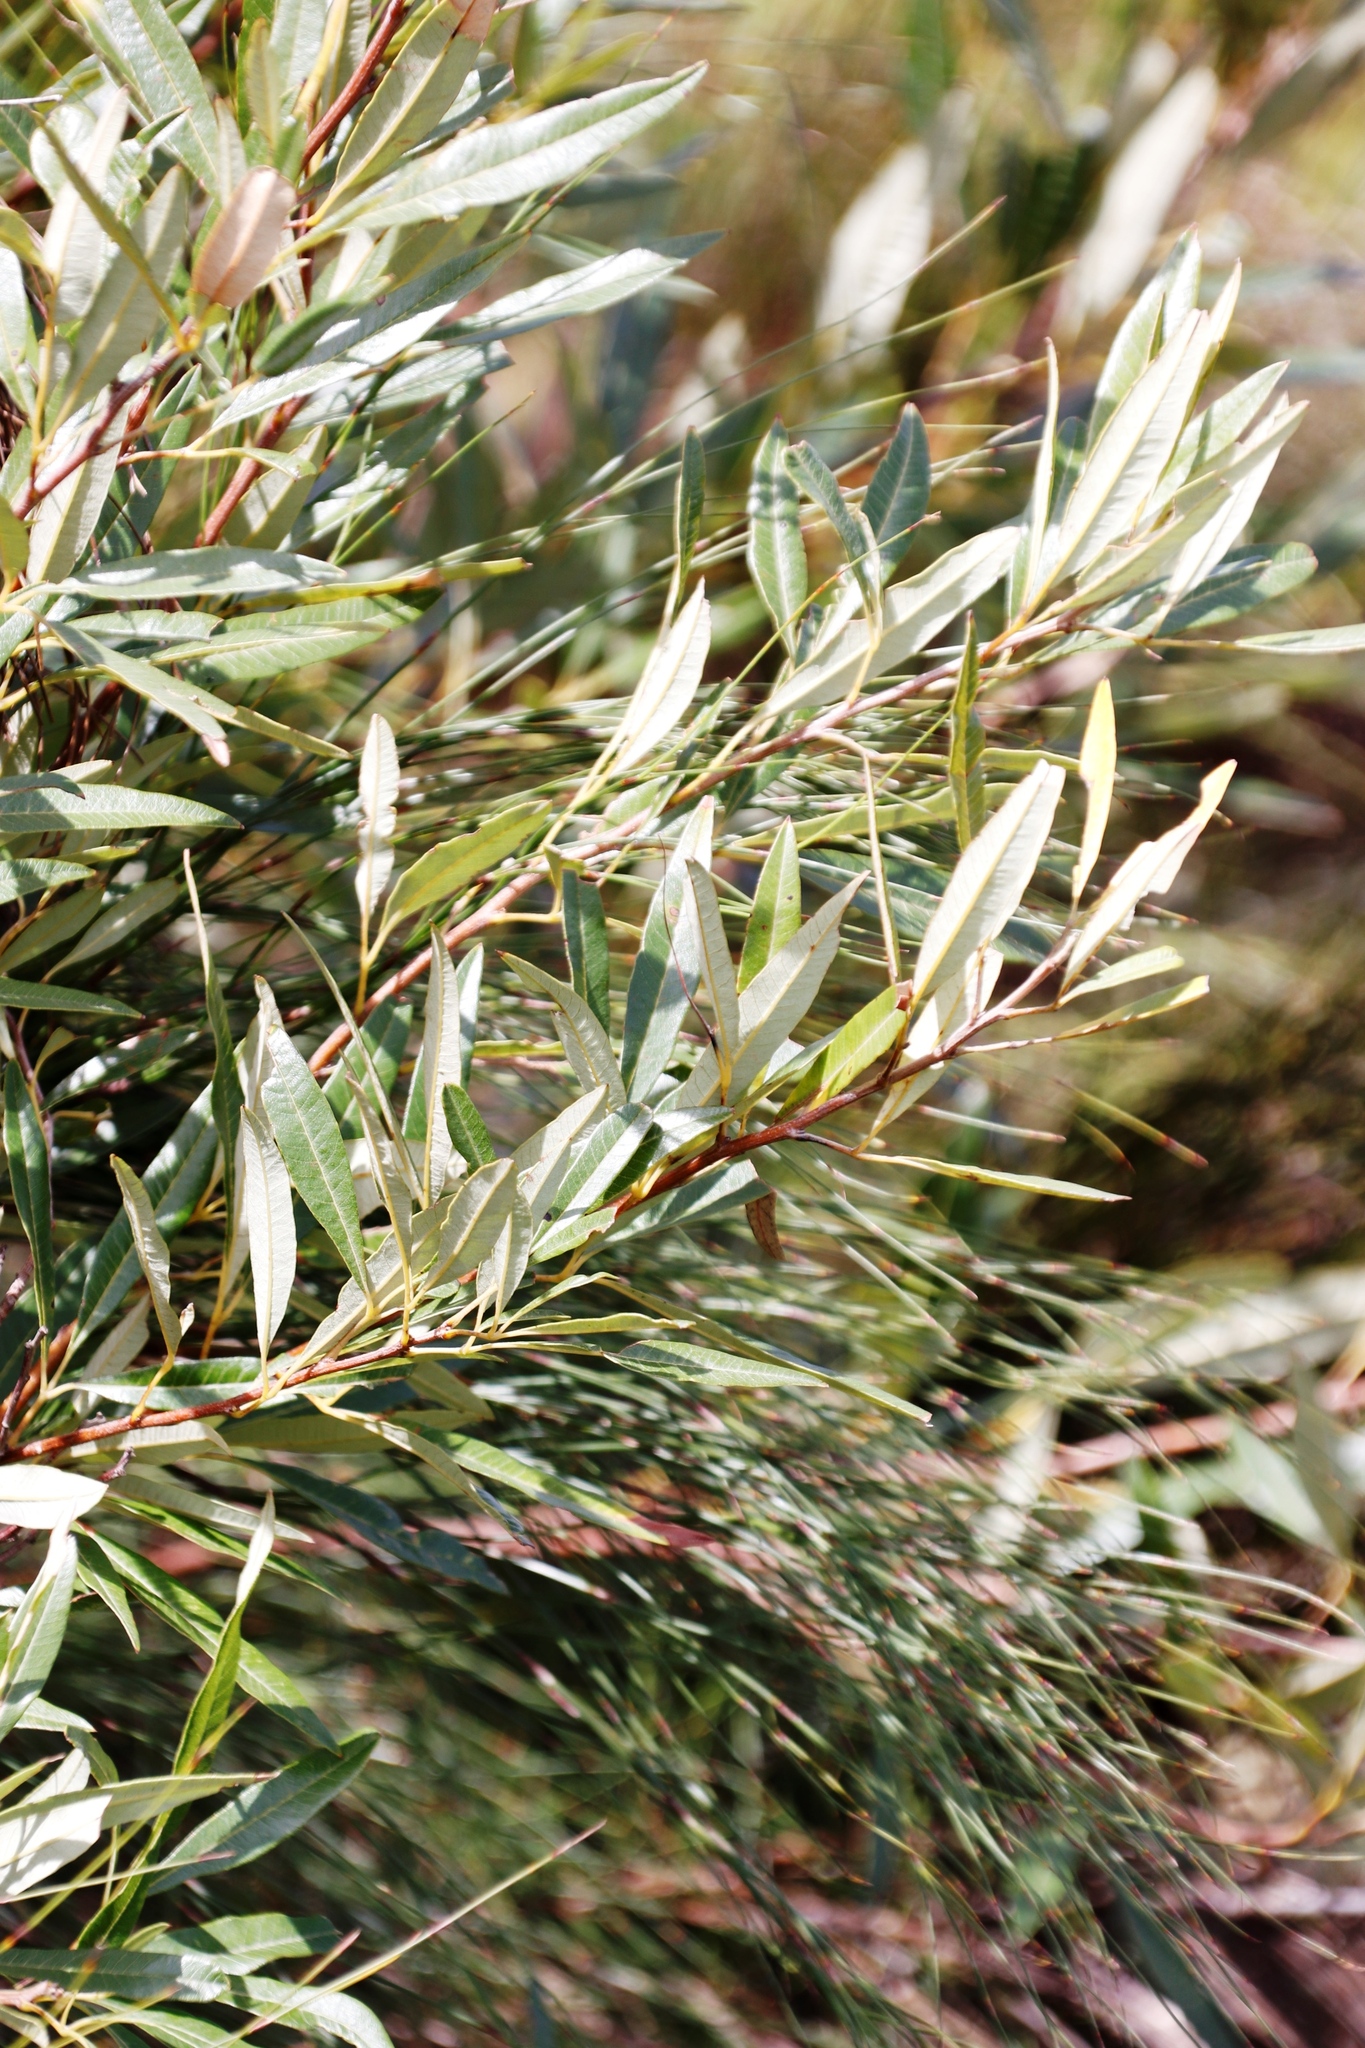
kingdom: Plantae
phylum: Tracheophyta
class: Magnoliopsida
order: Sapindales
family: Anacardiaceae
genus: Searsia
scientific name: Searsia angustifolia
